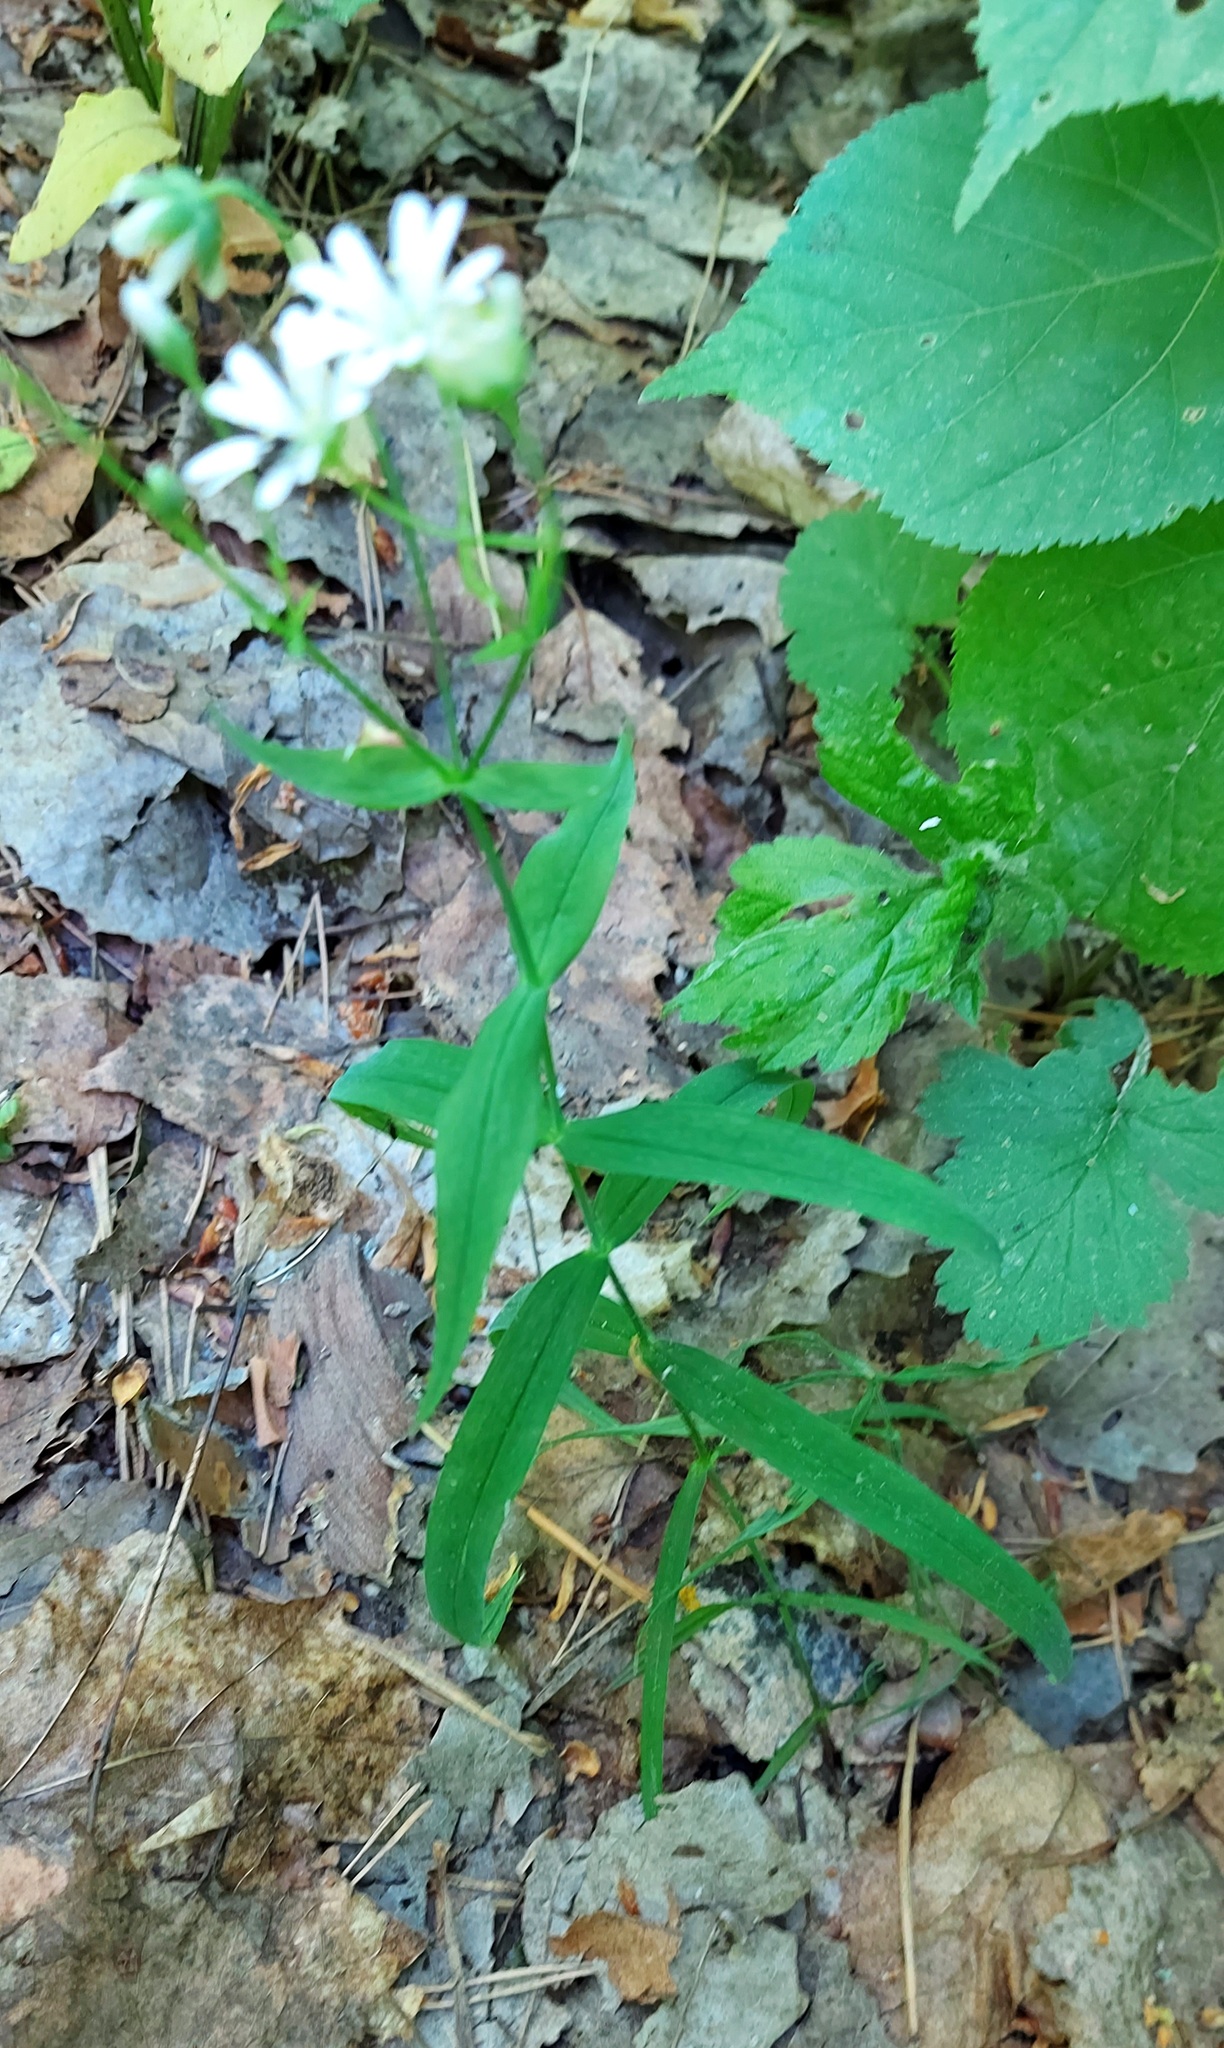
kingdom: Plantae
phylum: Tracheophyta
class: Magnoliopsida
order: Caryophyllales
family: Caryophyllaceae
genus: Rabelera
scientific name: Rabelera holostea
